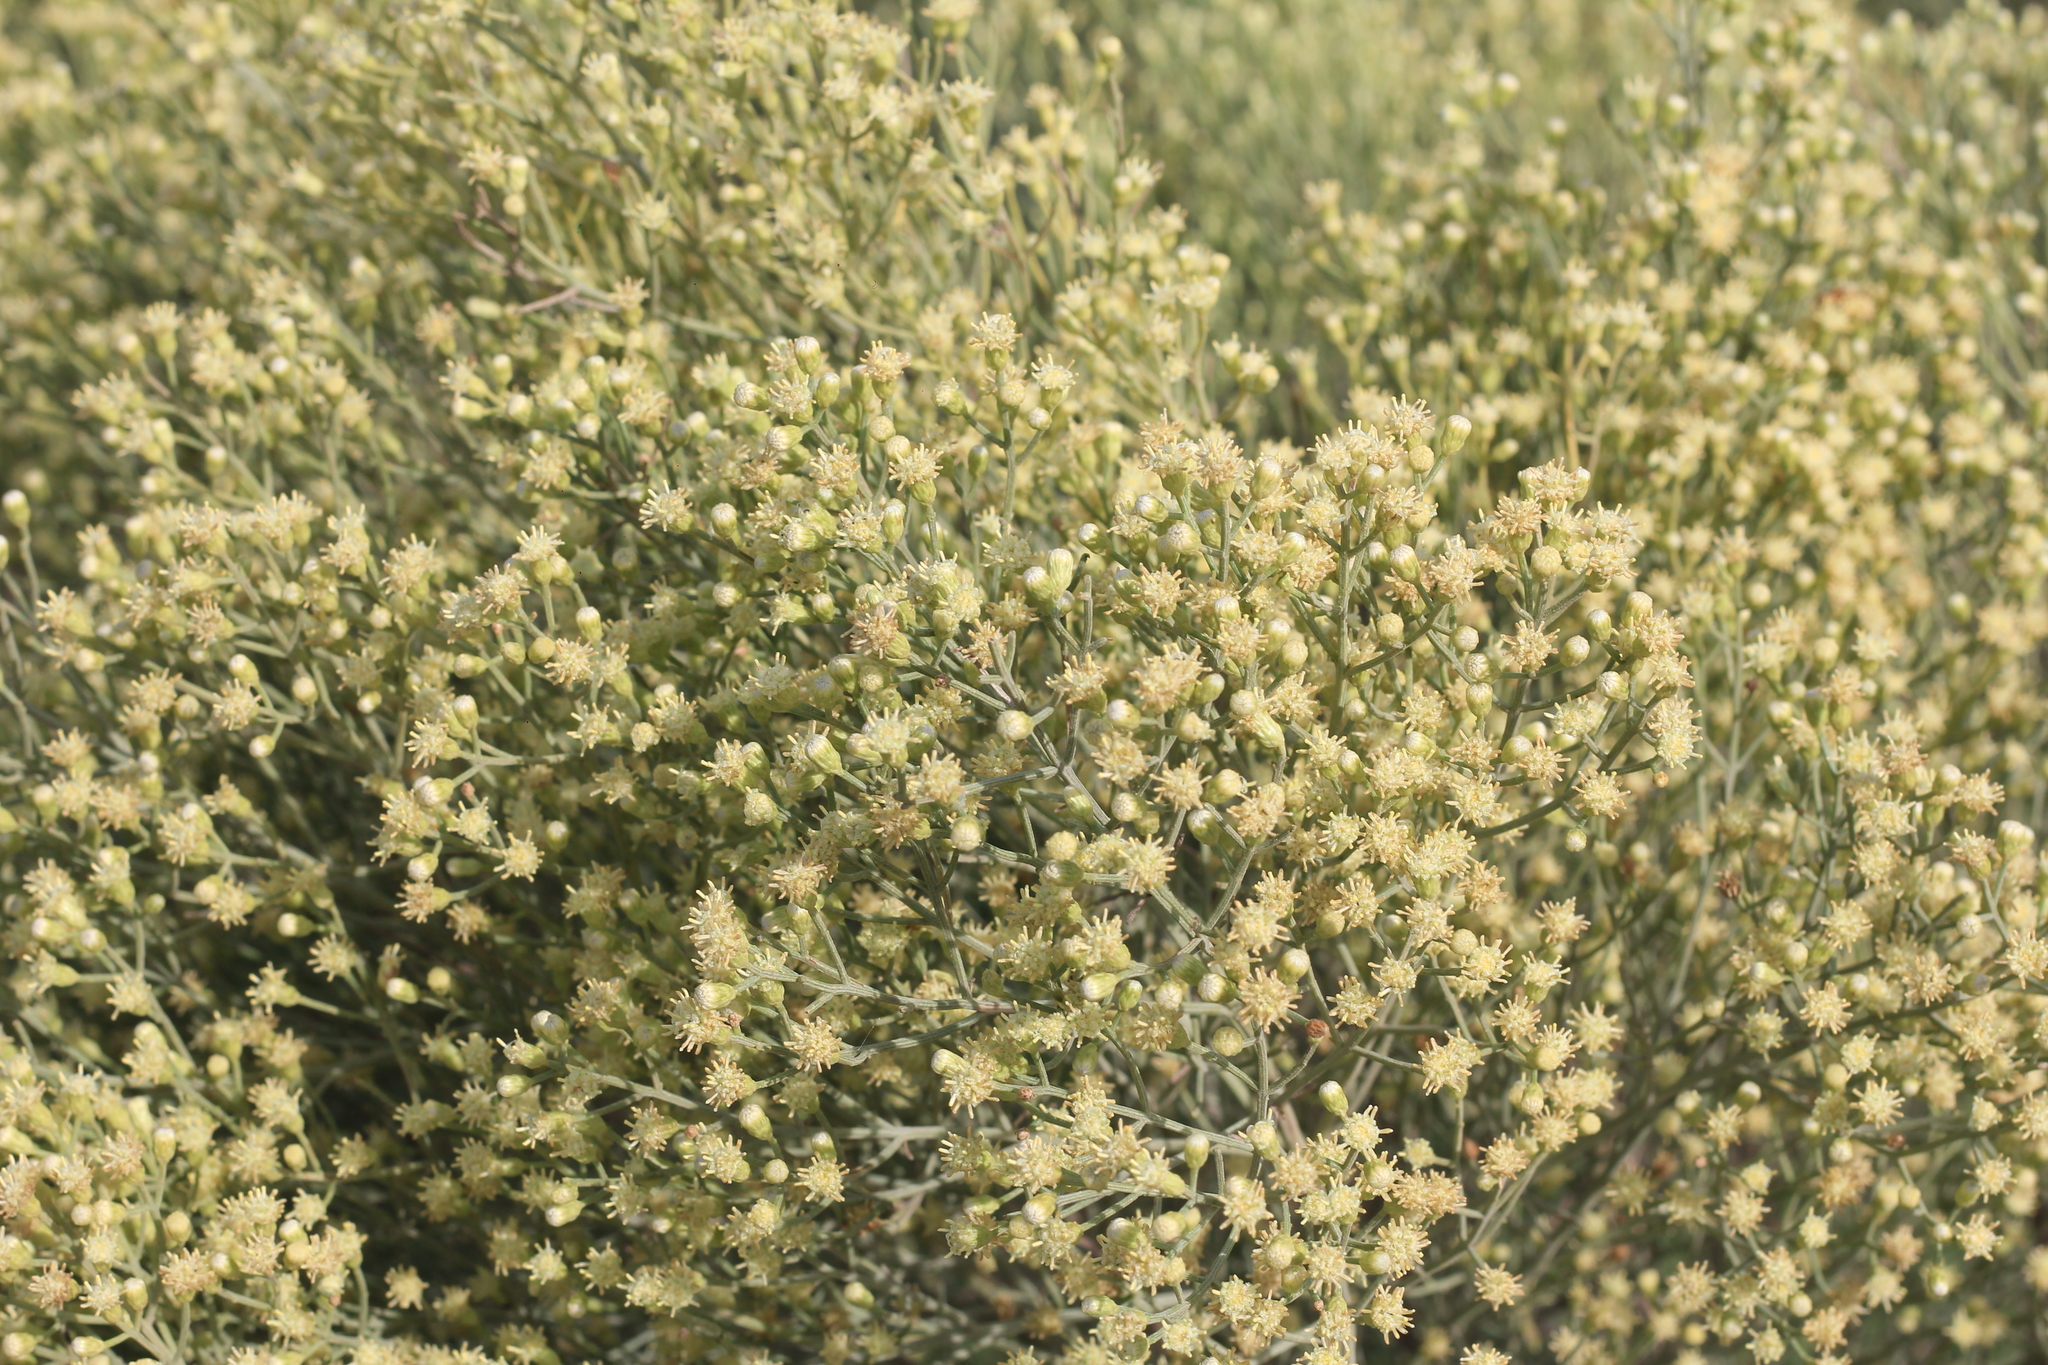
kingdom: Plantae
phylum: Tracheophyta
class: Magnoliopsida
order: Asterales
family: Asteraceae
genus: Baccharis
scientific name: Baccharis notosergila
